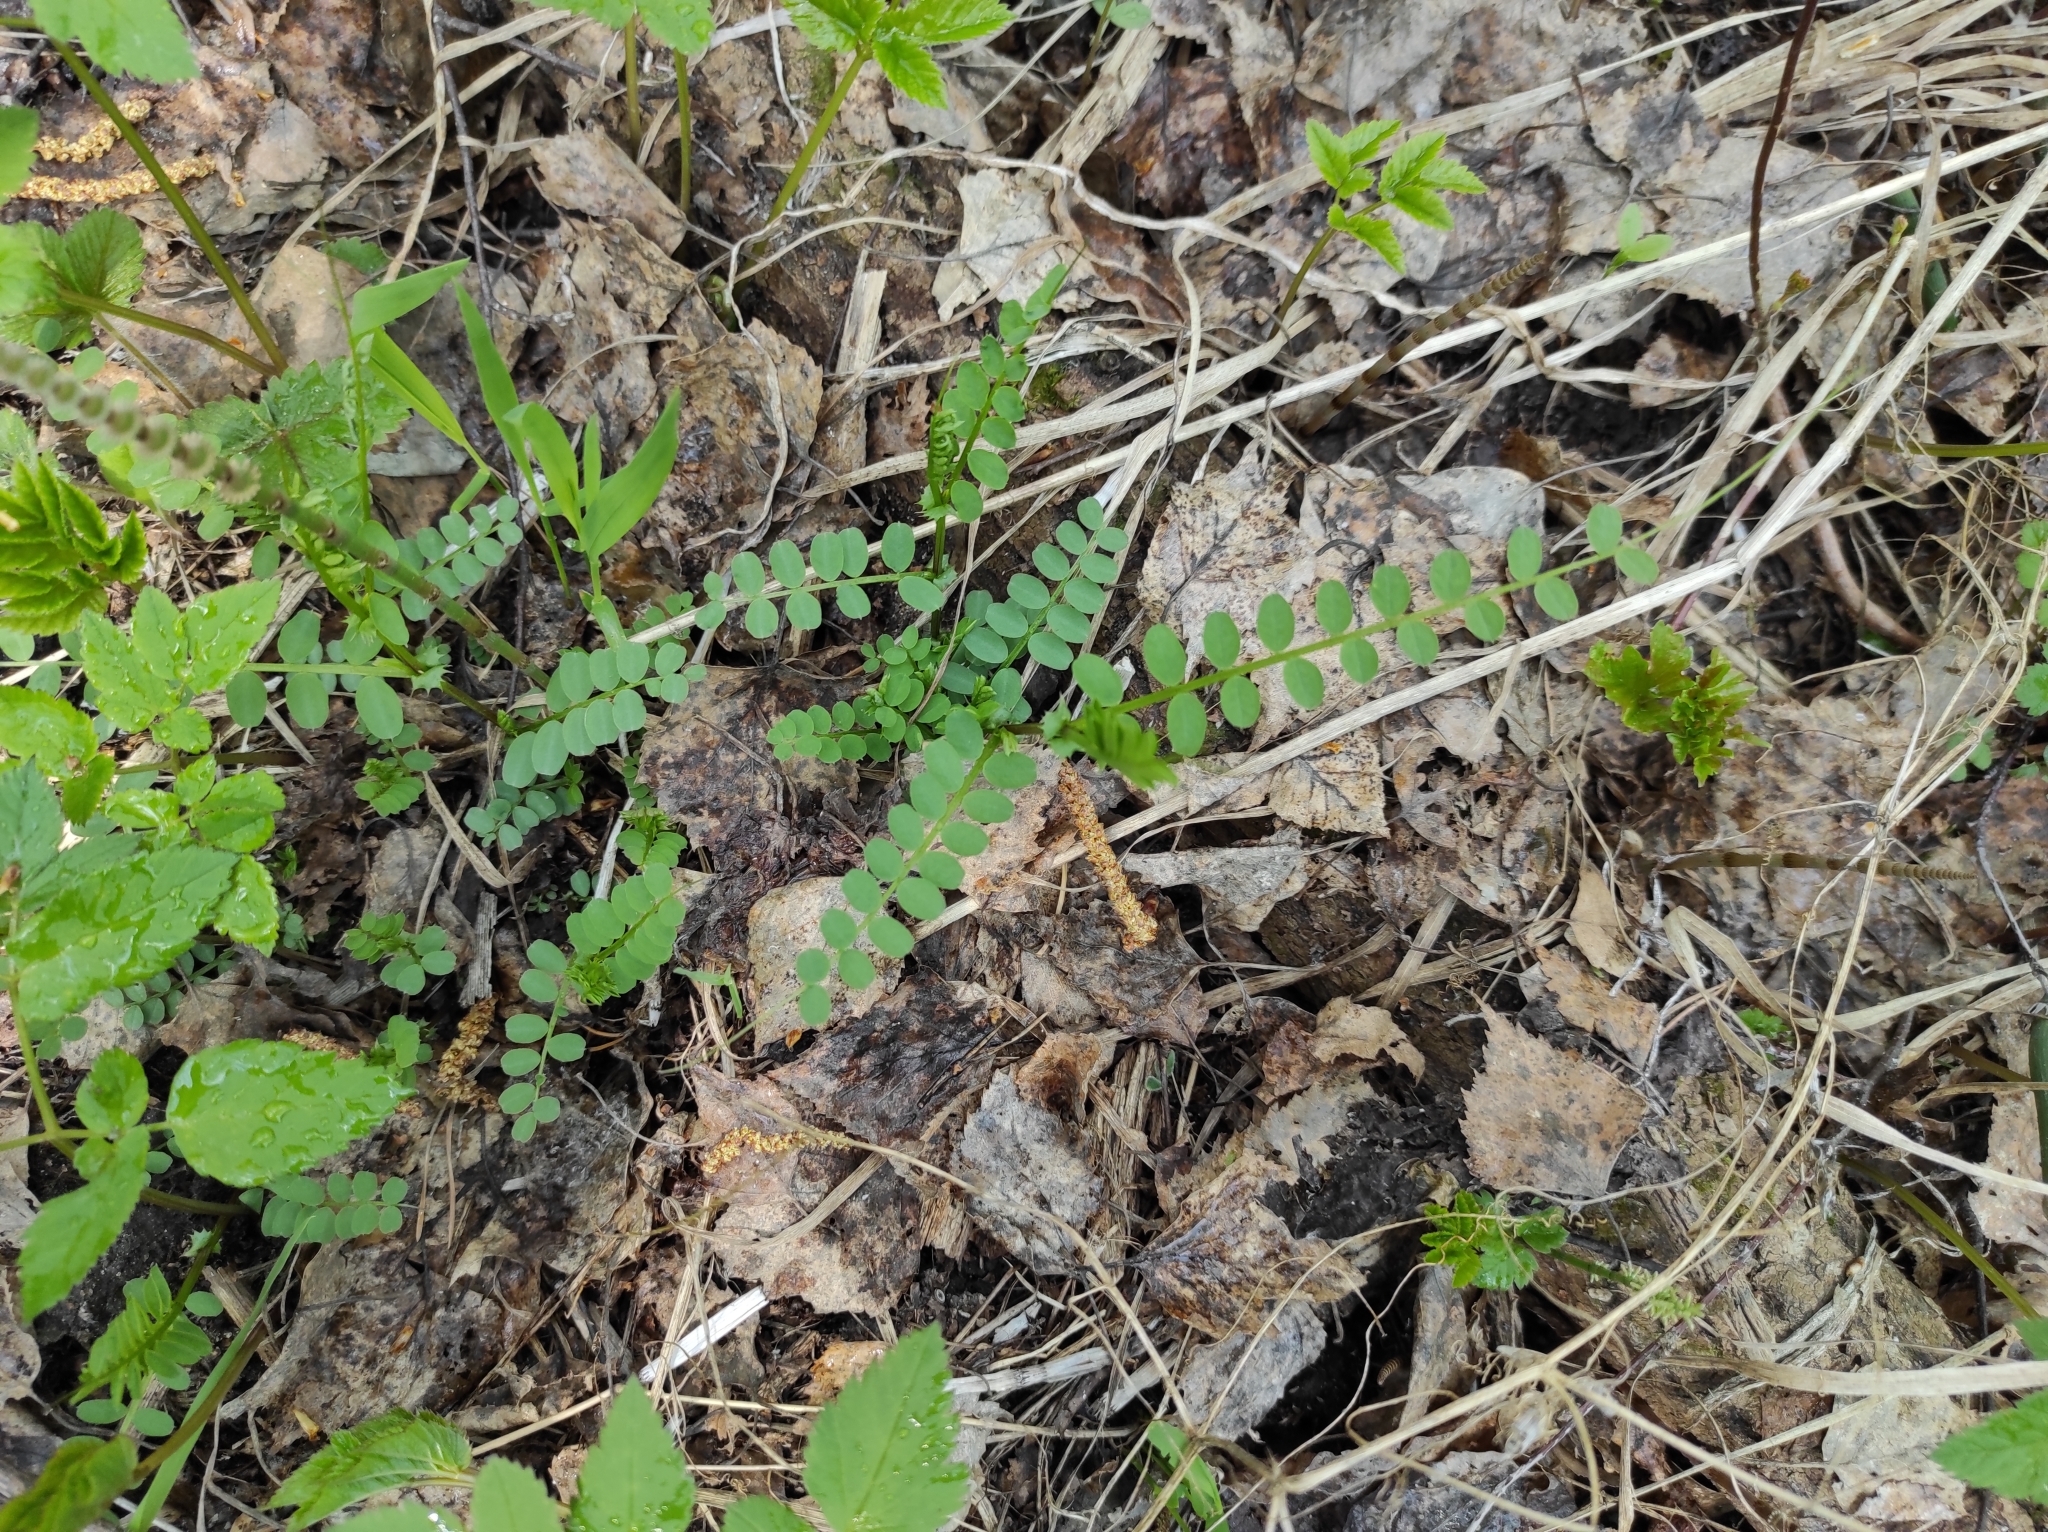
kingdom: Plantae
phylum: Tracheophyta
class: Magnoliopsida
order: Fabales
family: Fabaceae
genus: Vicia
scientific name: Vicia sylvatica
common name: Wood vetch
